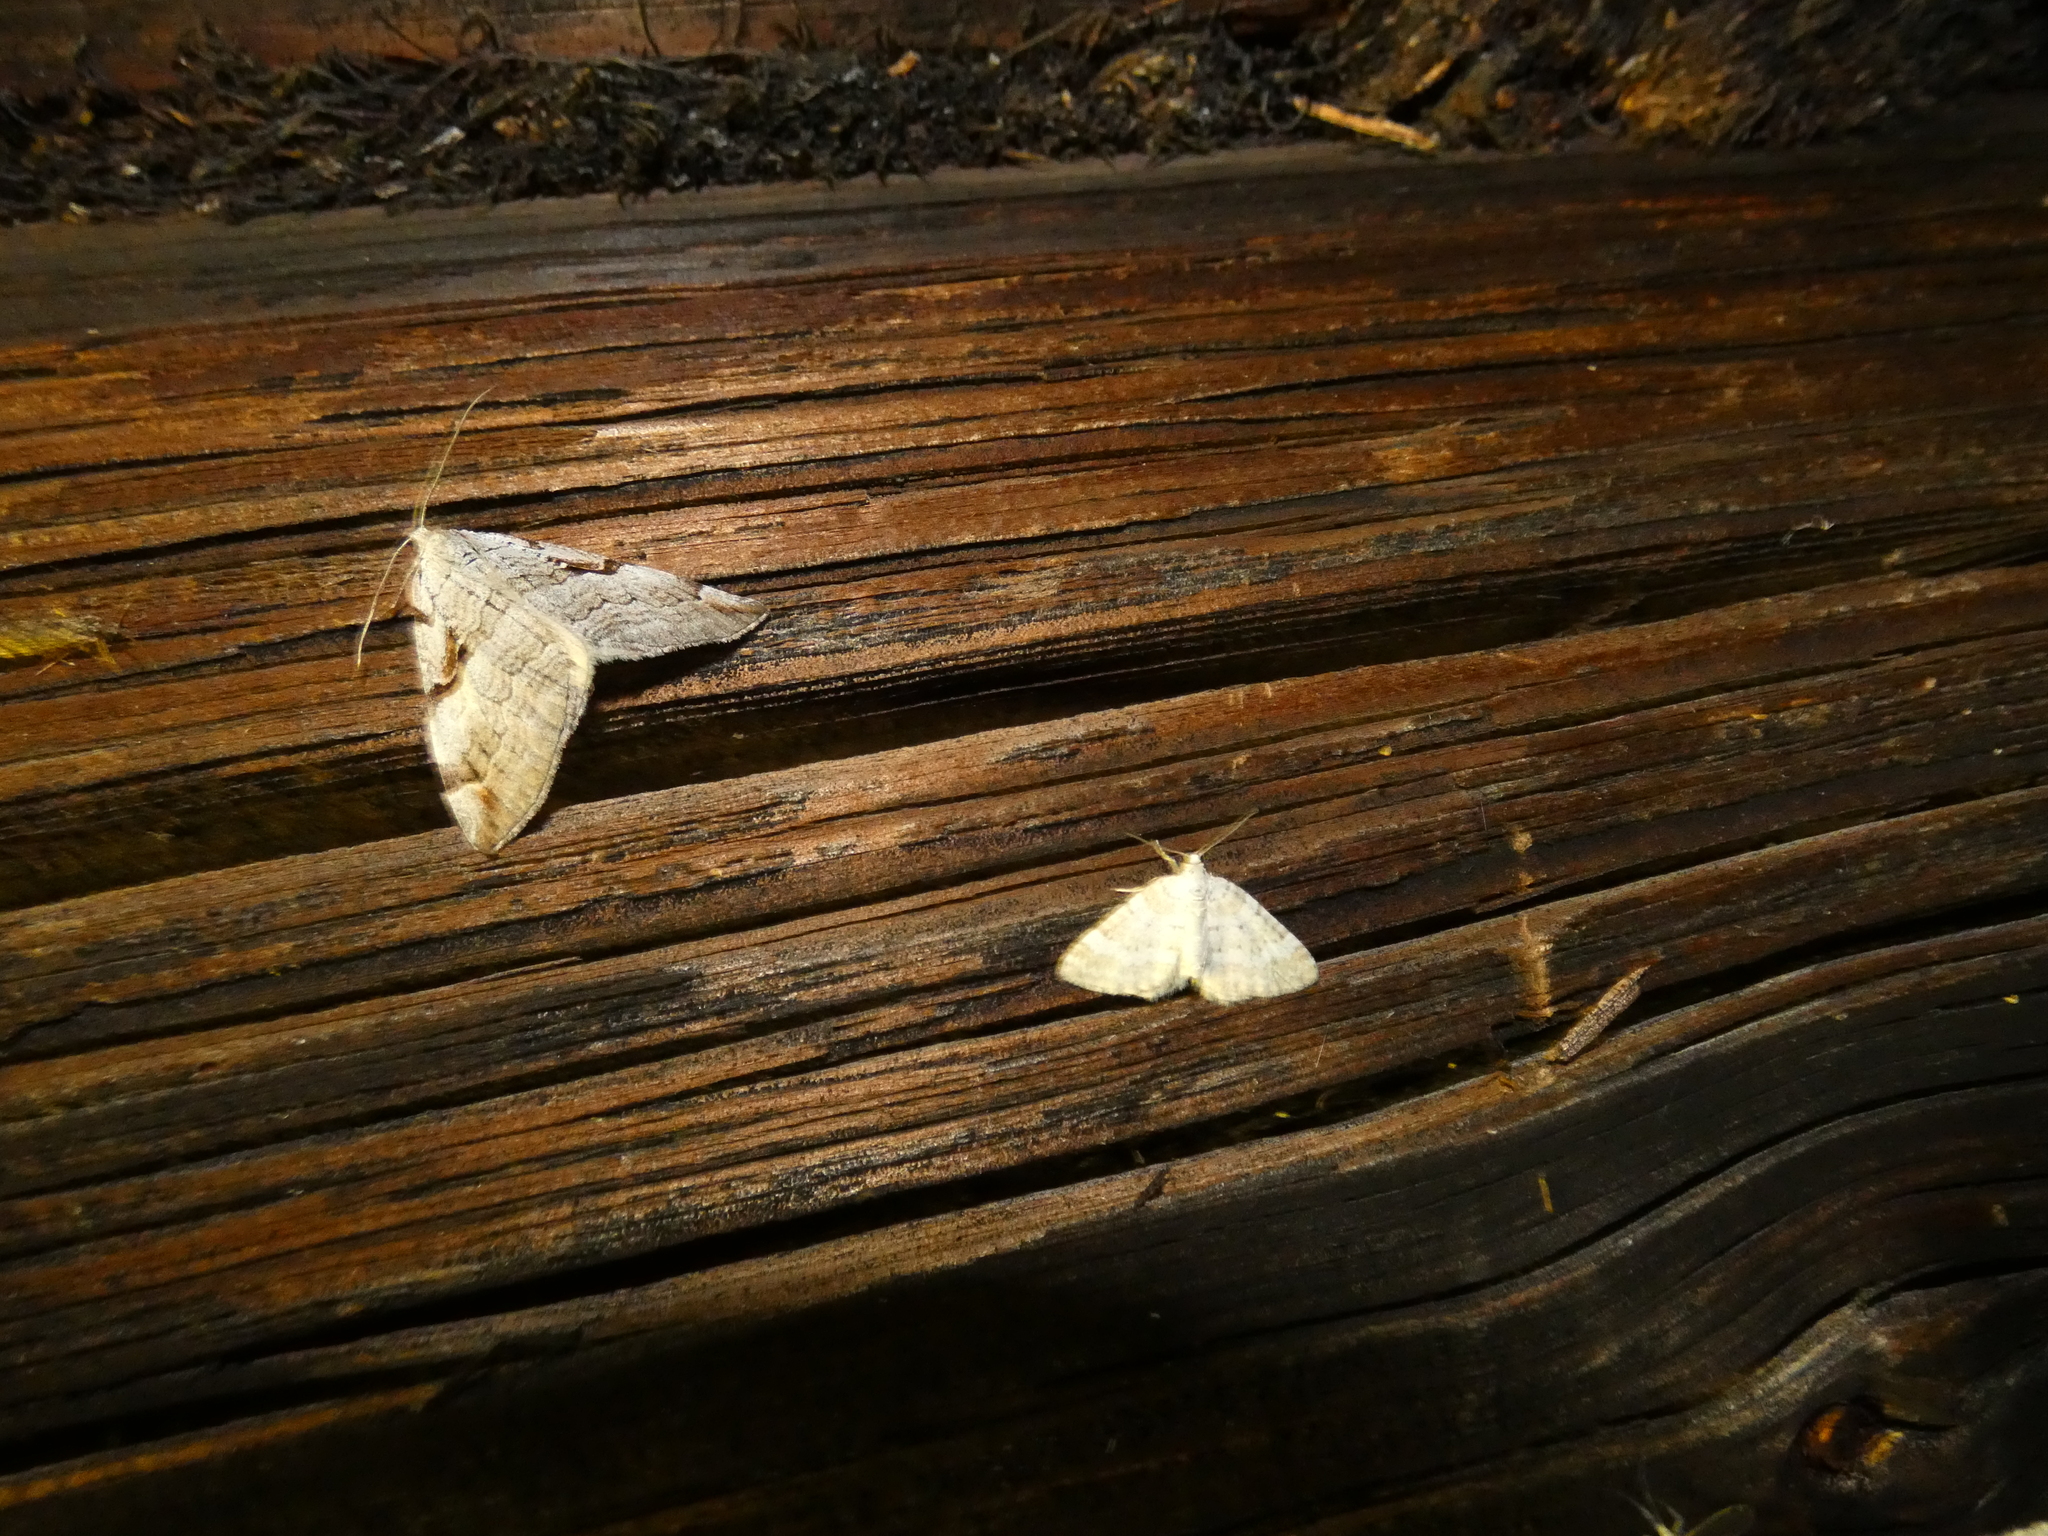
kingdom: Animalia
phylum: Arthropoda
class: Insecta
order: Lepidoptera
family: Geometridae
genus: Aplocera
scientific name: Aplocera praeformata
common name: Purple treble-bar
